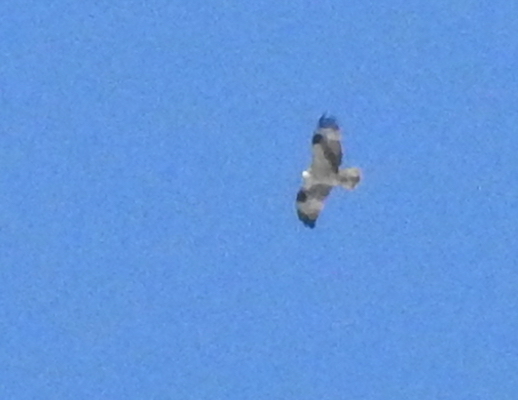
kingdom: Animalia
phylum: Chordata
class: Aves
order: Accipitriformes
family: Pandionidae
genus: Pandion
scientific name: Pandion haliaetus
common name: Osprey
